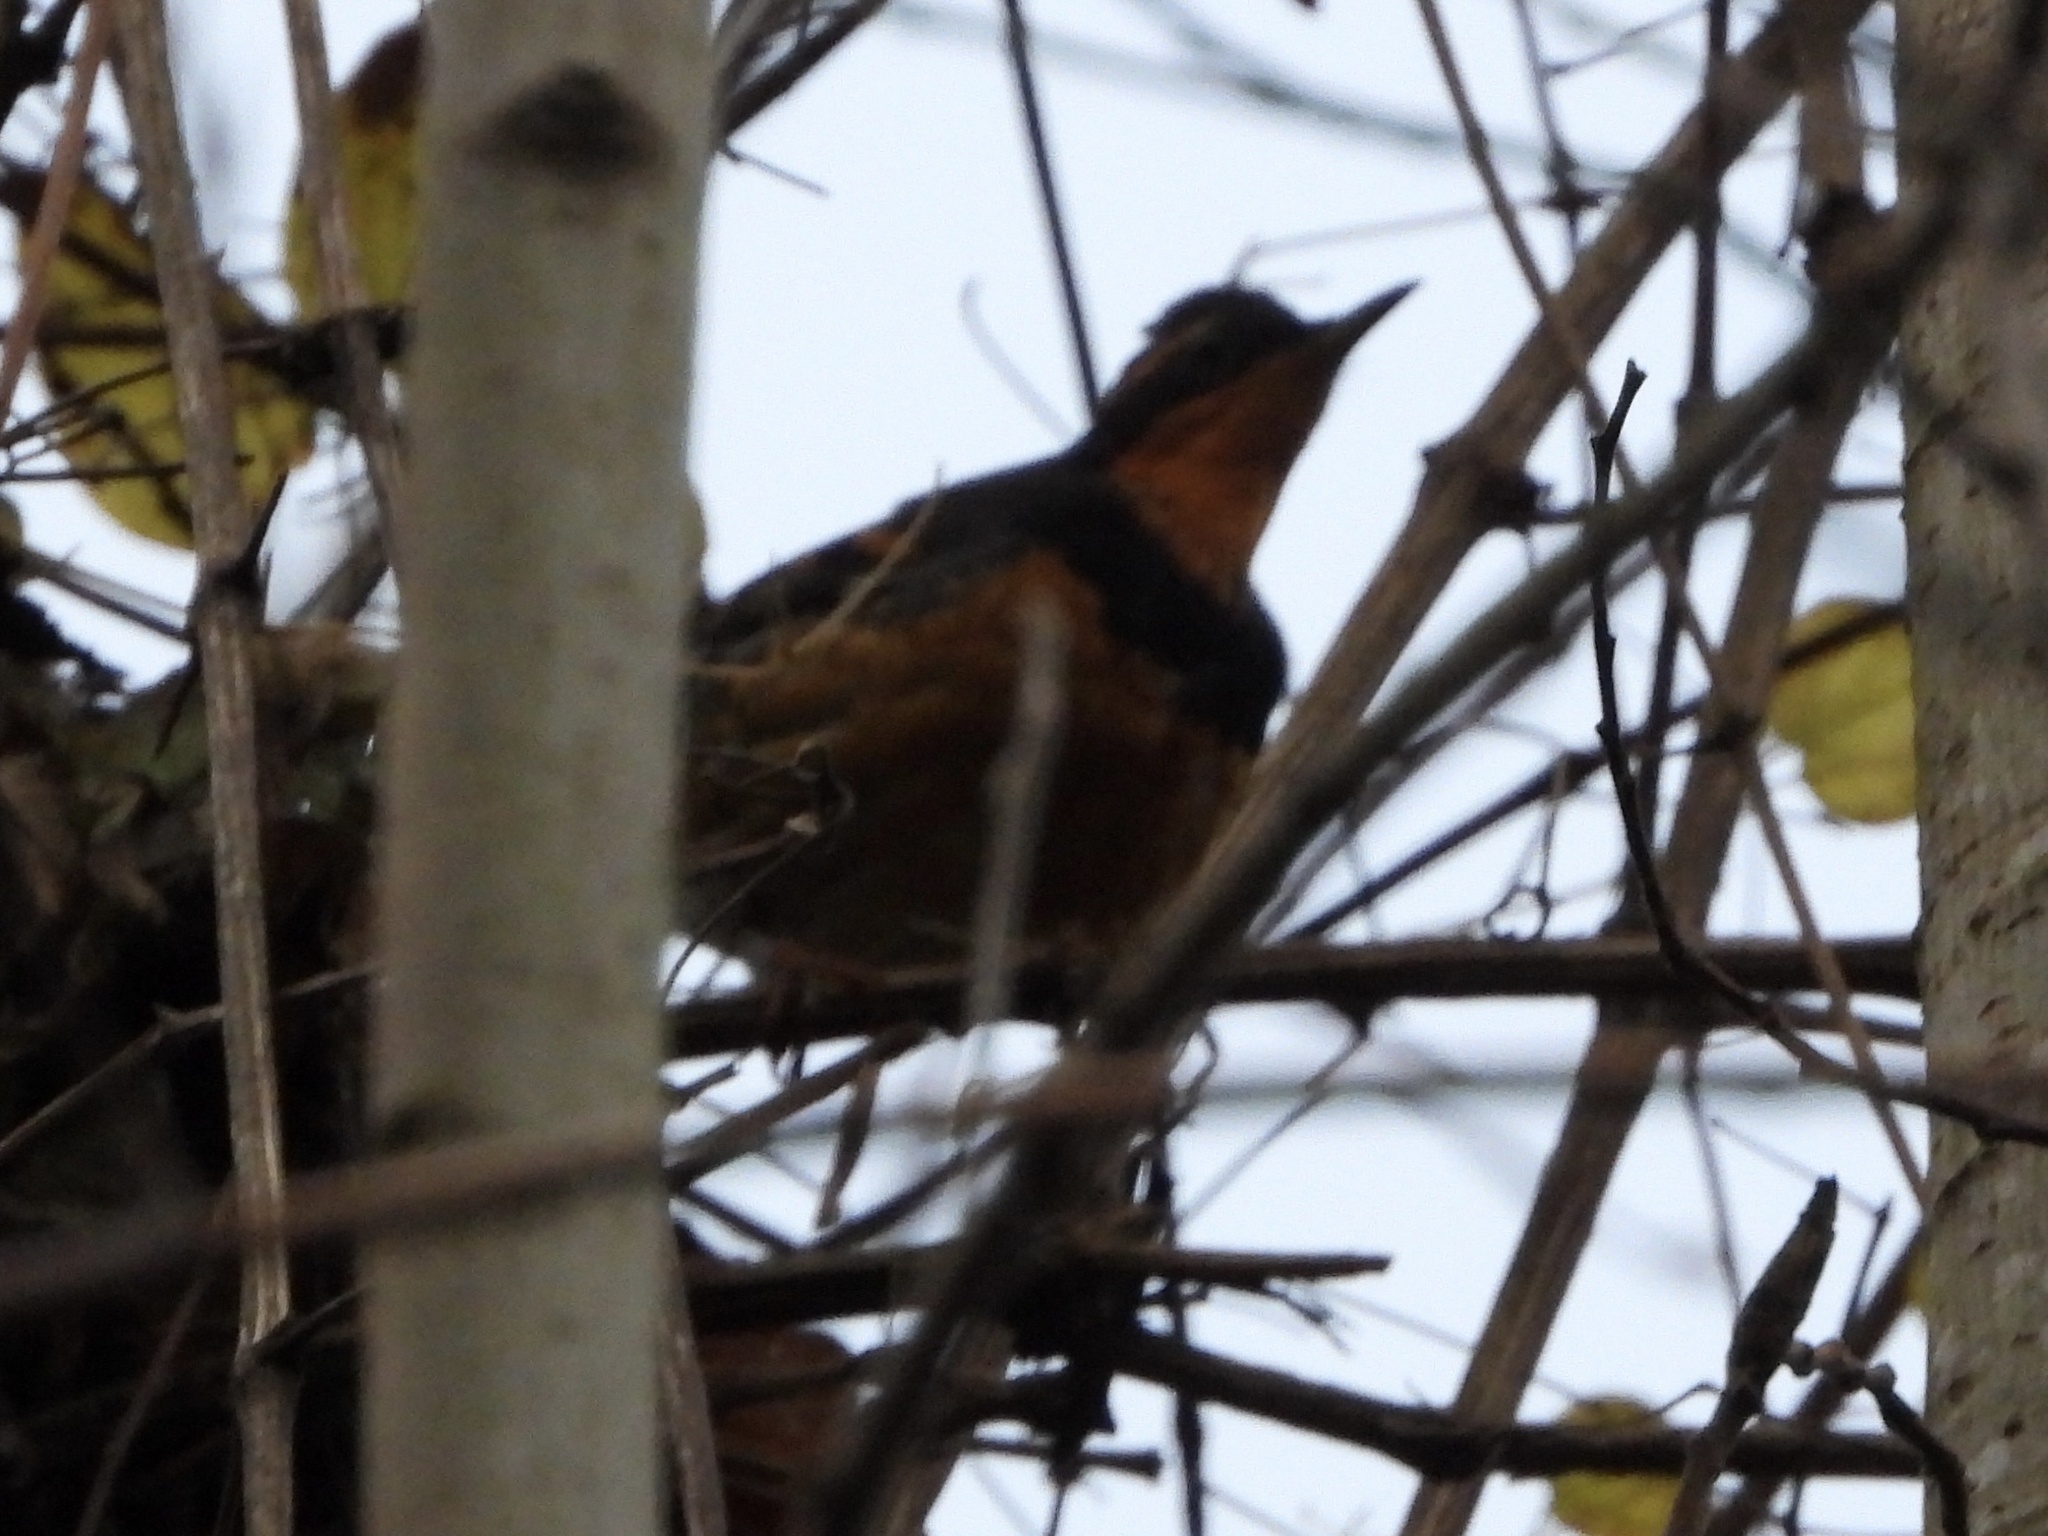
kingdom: Animalia
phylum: Chordata
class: Aves
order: Passeriformes
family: Turdidae
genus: Ixoreus
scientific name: Ixoreus naevius
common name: Varied thrush
